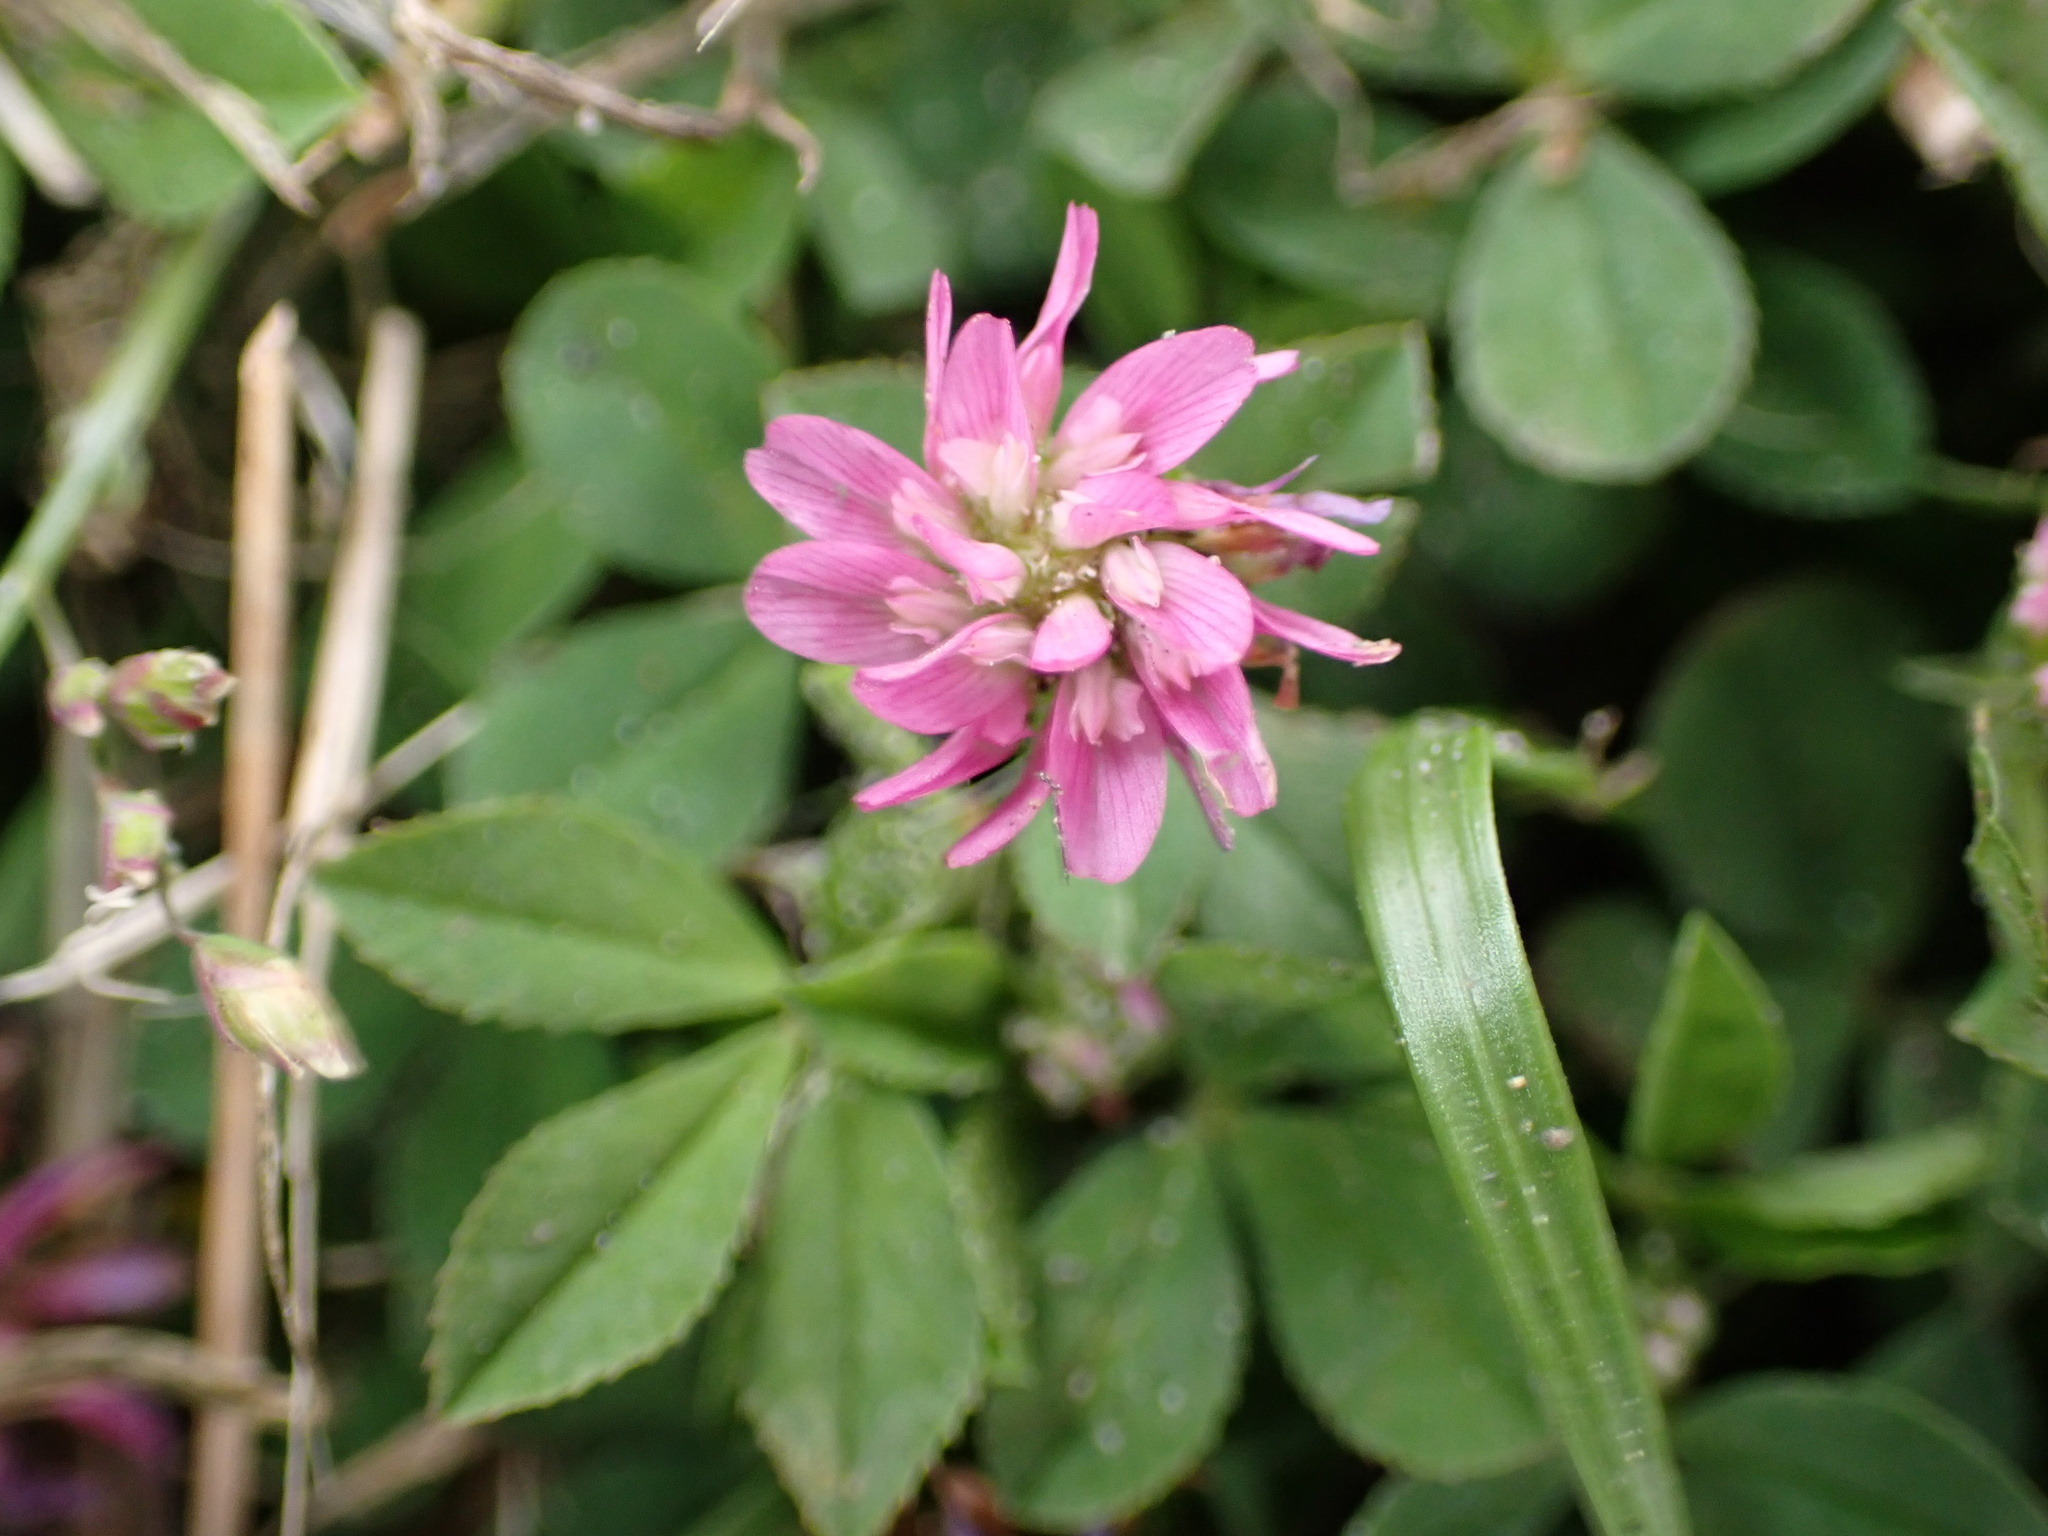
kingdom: Plantae
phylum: Tracheophyta
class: Magnoliopsida
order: Fabales
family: Fabaceae
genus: Trifolium
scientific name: Trifolium resupinatum
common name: Reversed clover
